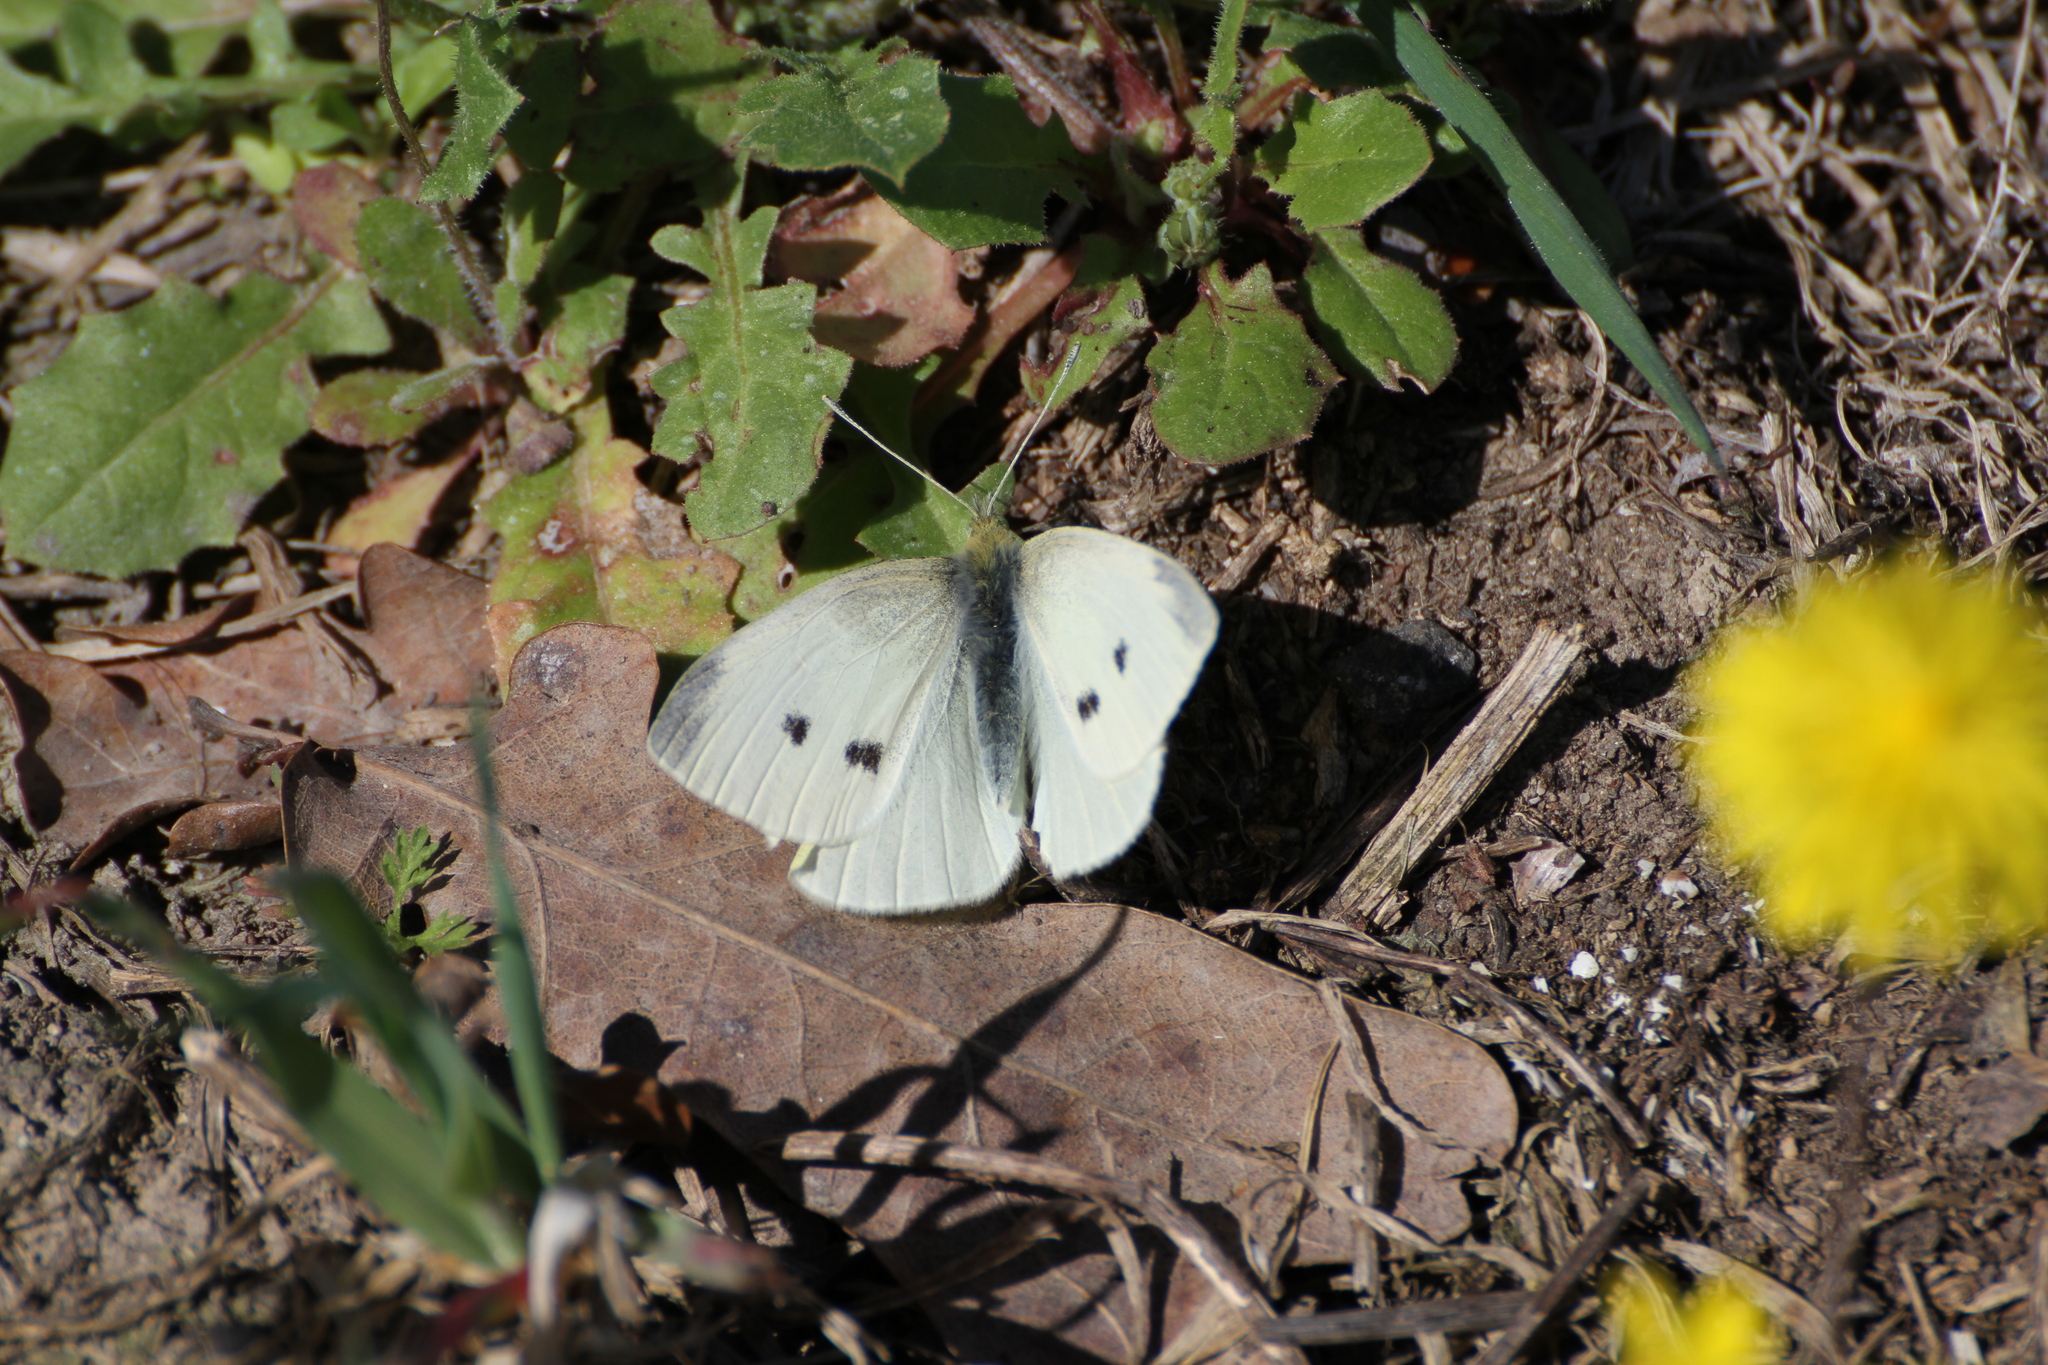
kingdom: Animalia
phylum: Arthropoda
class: Insecta
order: Lepidoptera
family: Pieridae
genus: Pieris
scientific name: Pieris rapae
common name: Small white
